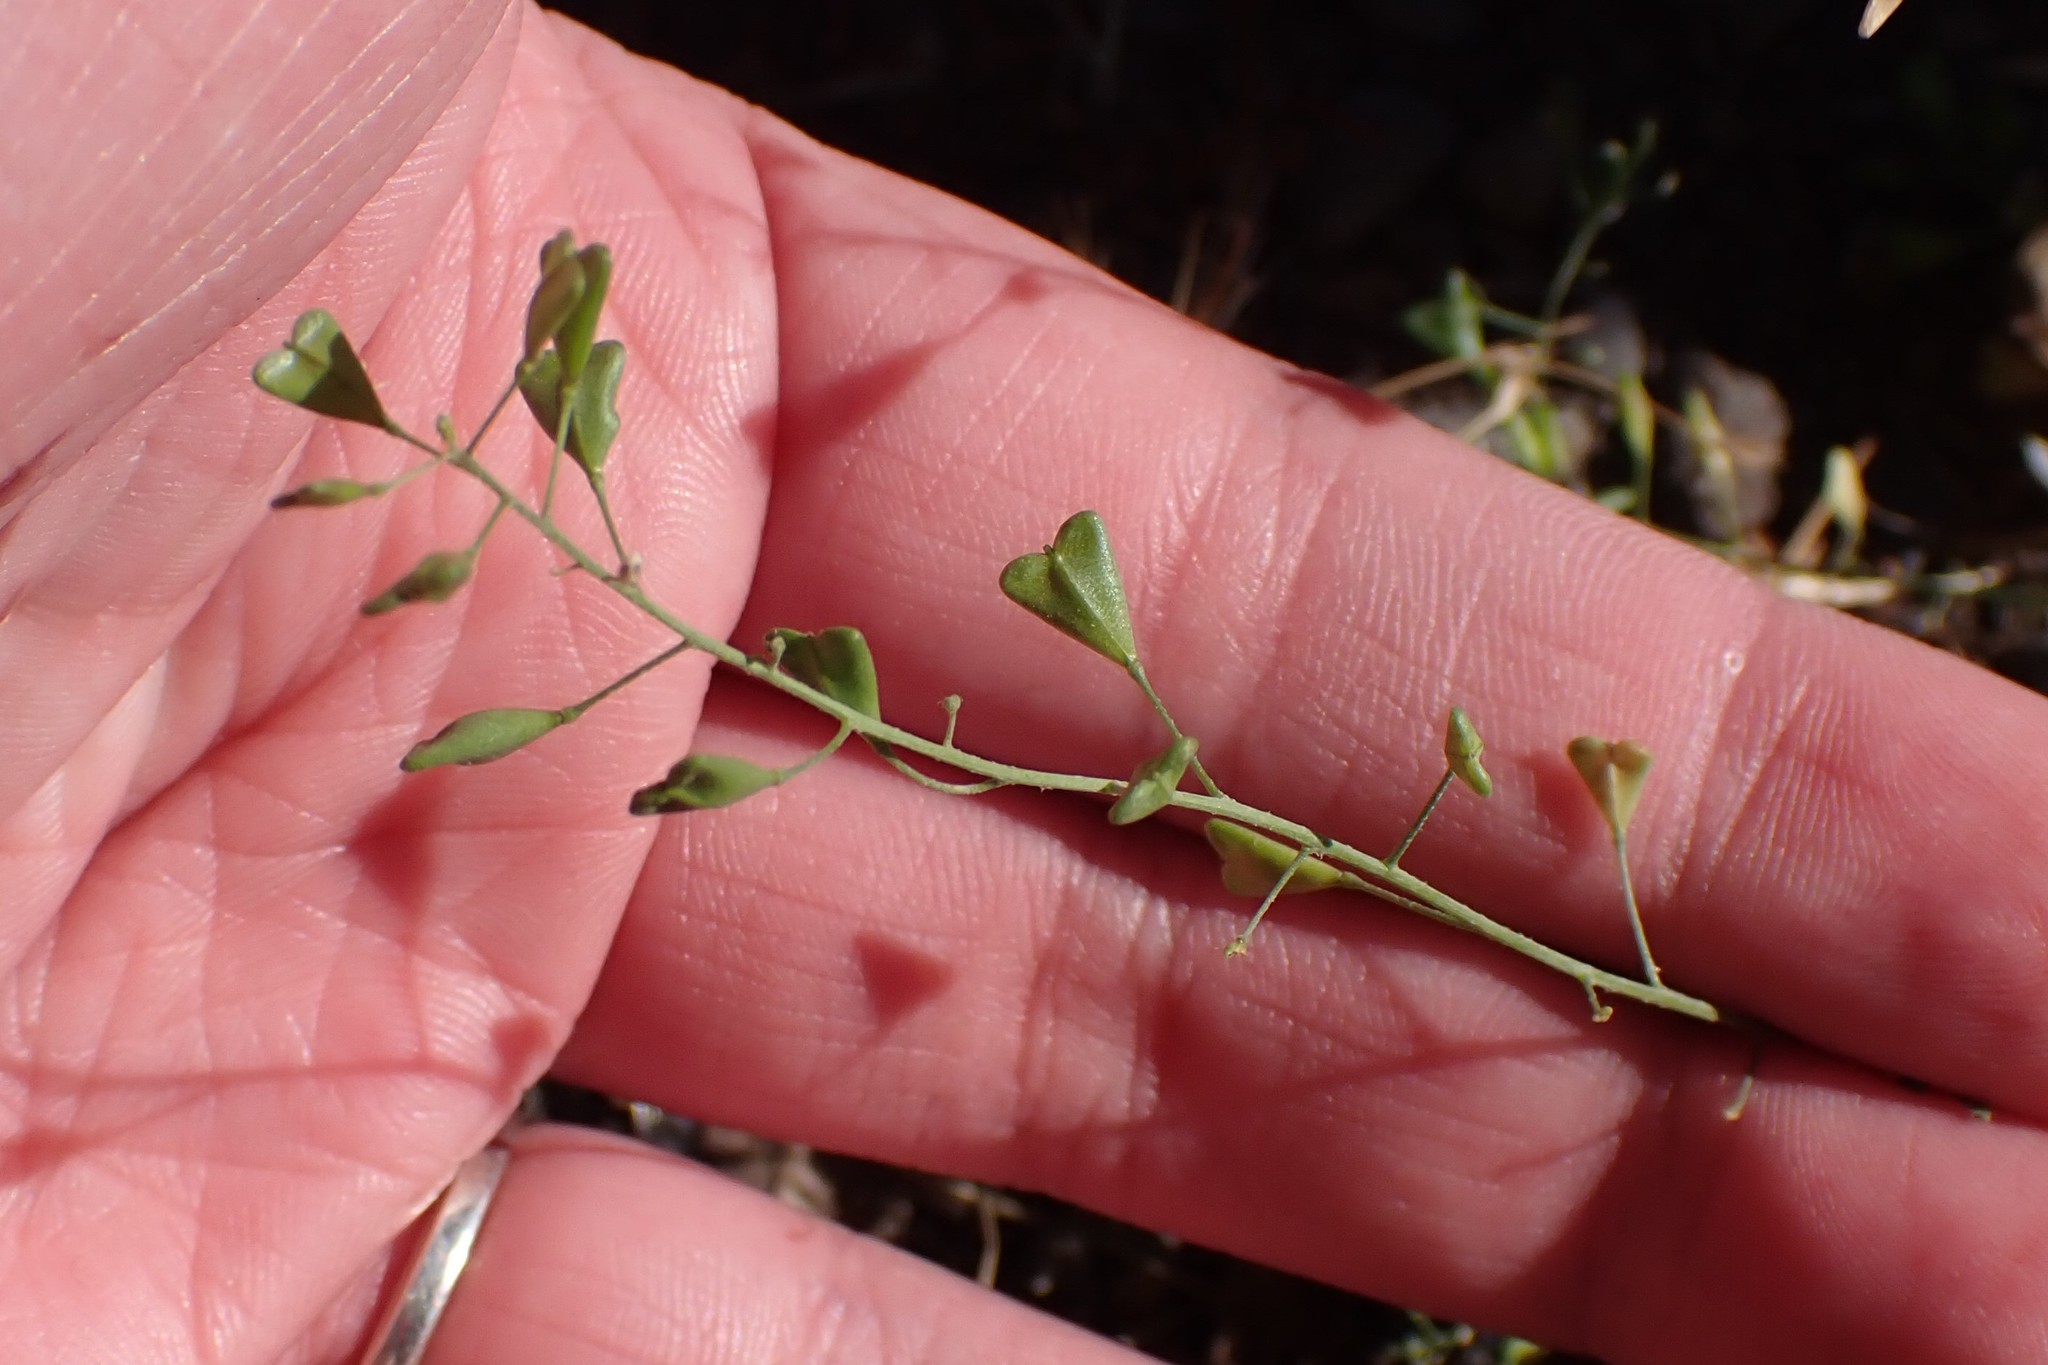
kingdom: Plantae
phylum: Tracheophyta
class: Magnoliopsida
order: Brassicales
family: Brassicaceae
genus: Capsella
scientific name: Capsella bursa-pastoris
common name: Shepherd's purse
